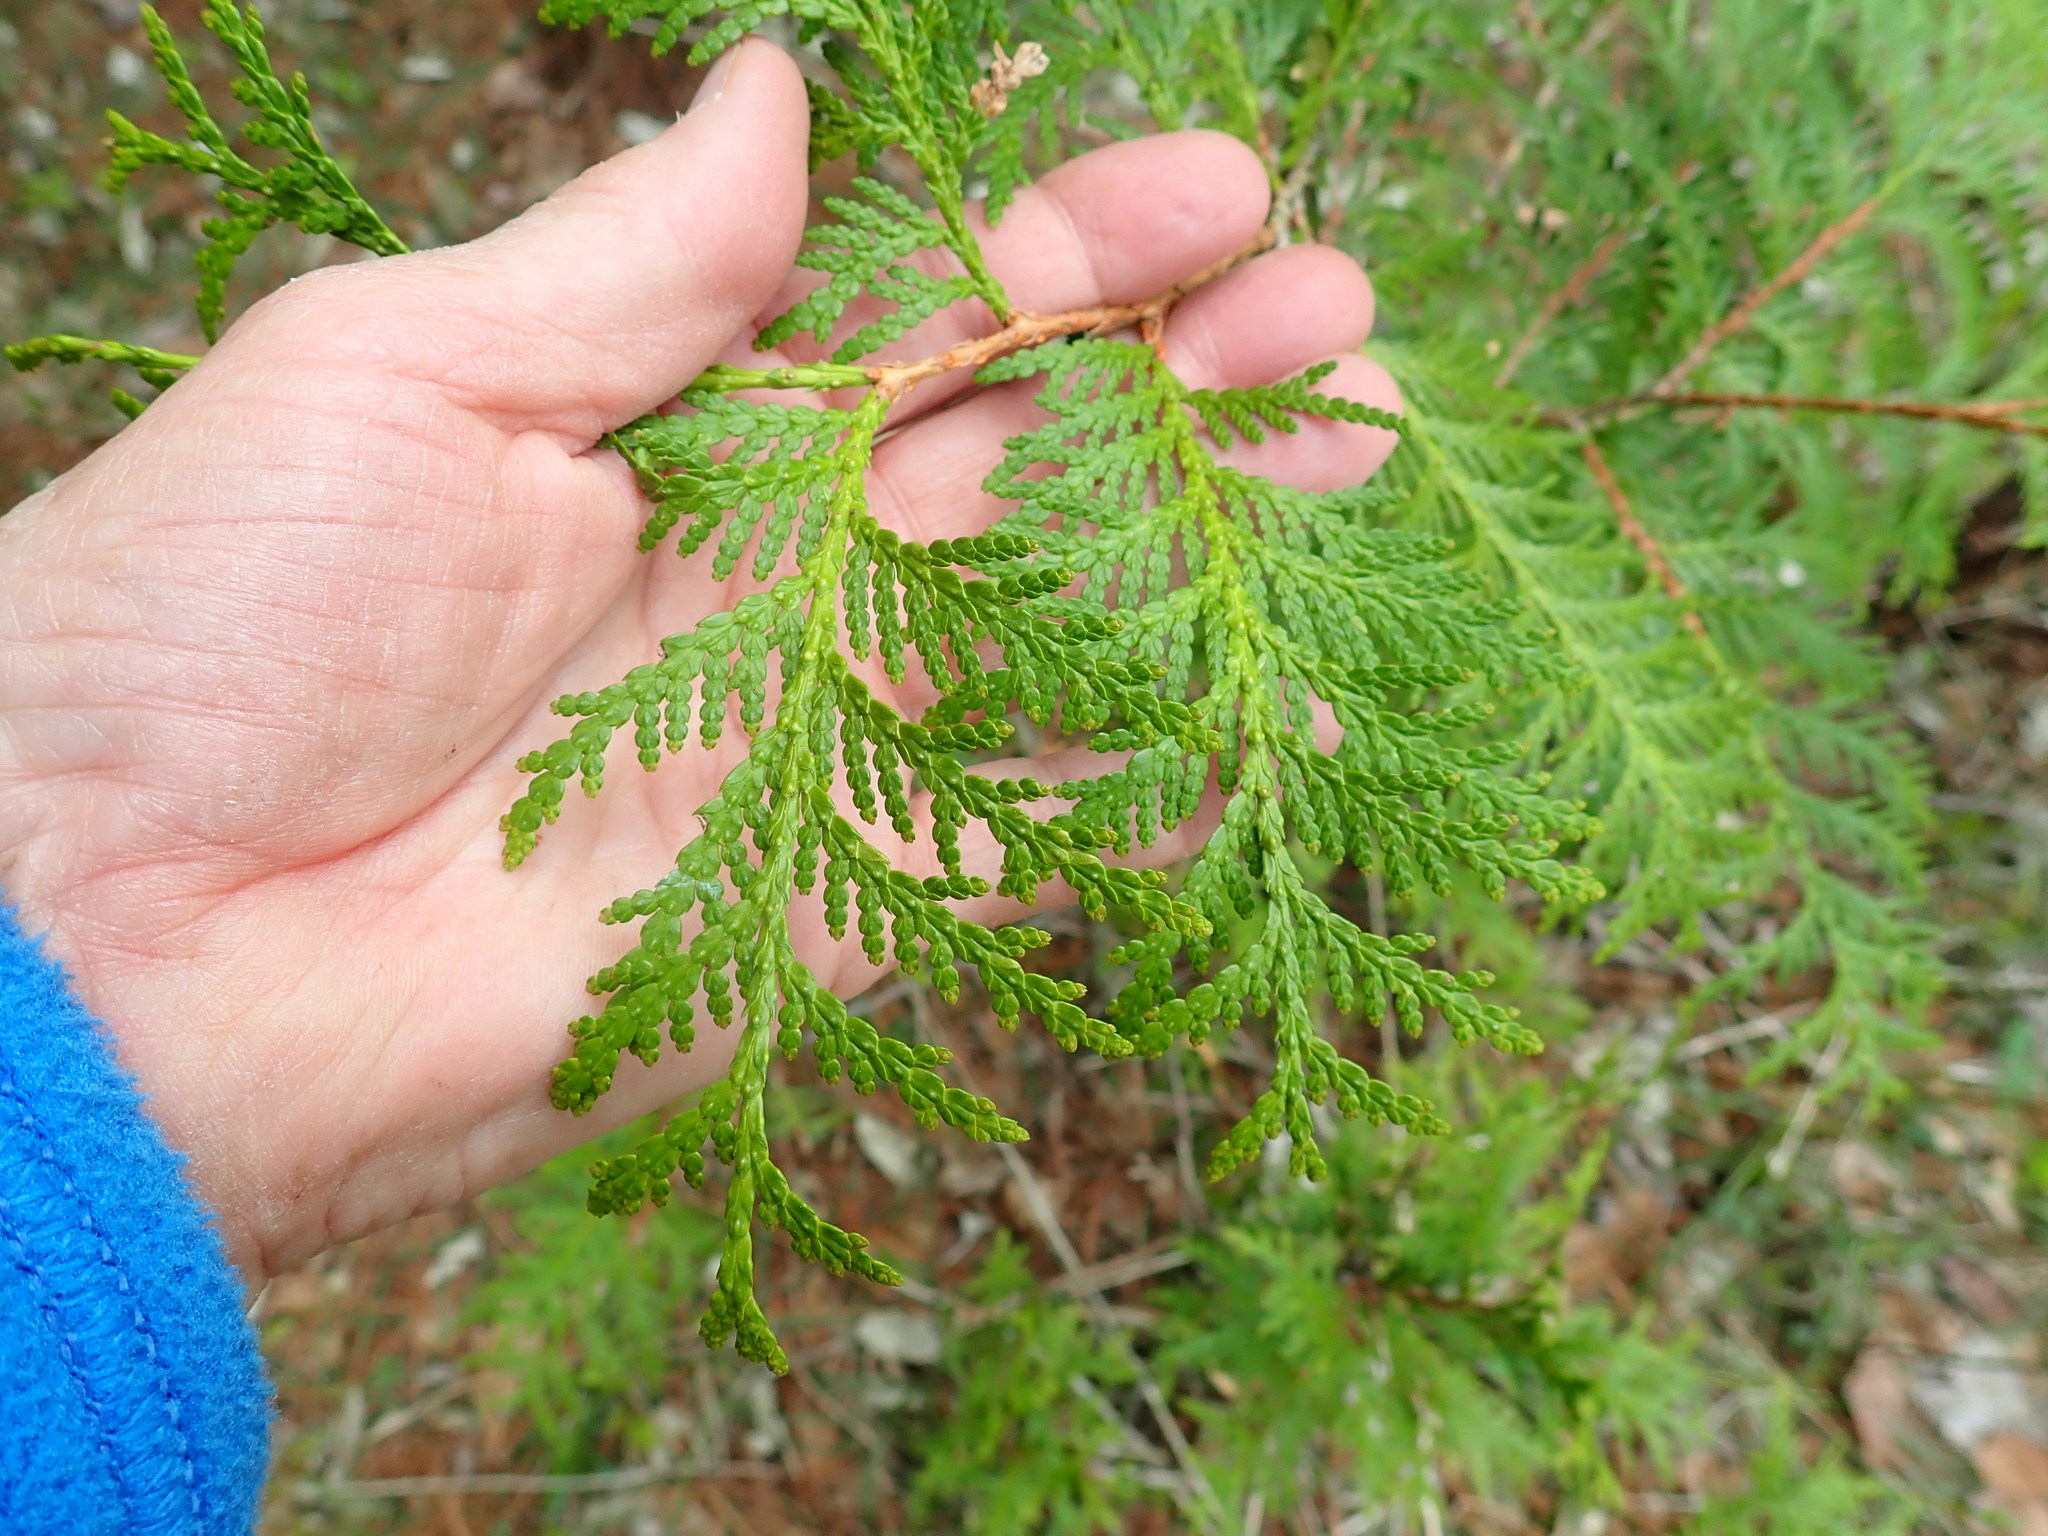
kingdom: Plantae
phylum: Tracheophyta
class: Pinopsida
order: Pinales
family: Cupressaceae
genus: Thuja
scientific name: Thuja occidentalis
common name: Northern white-cedar
